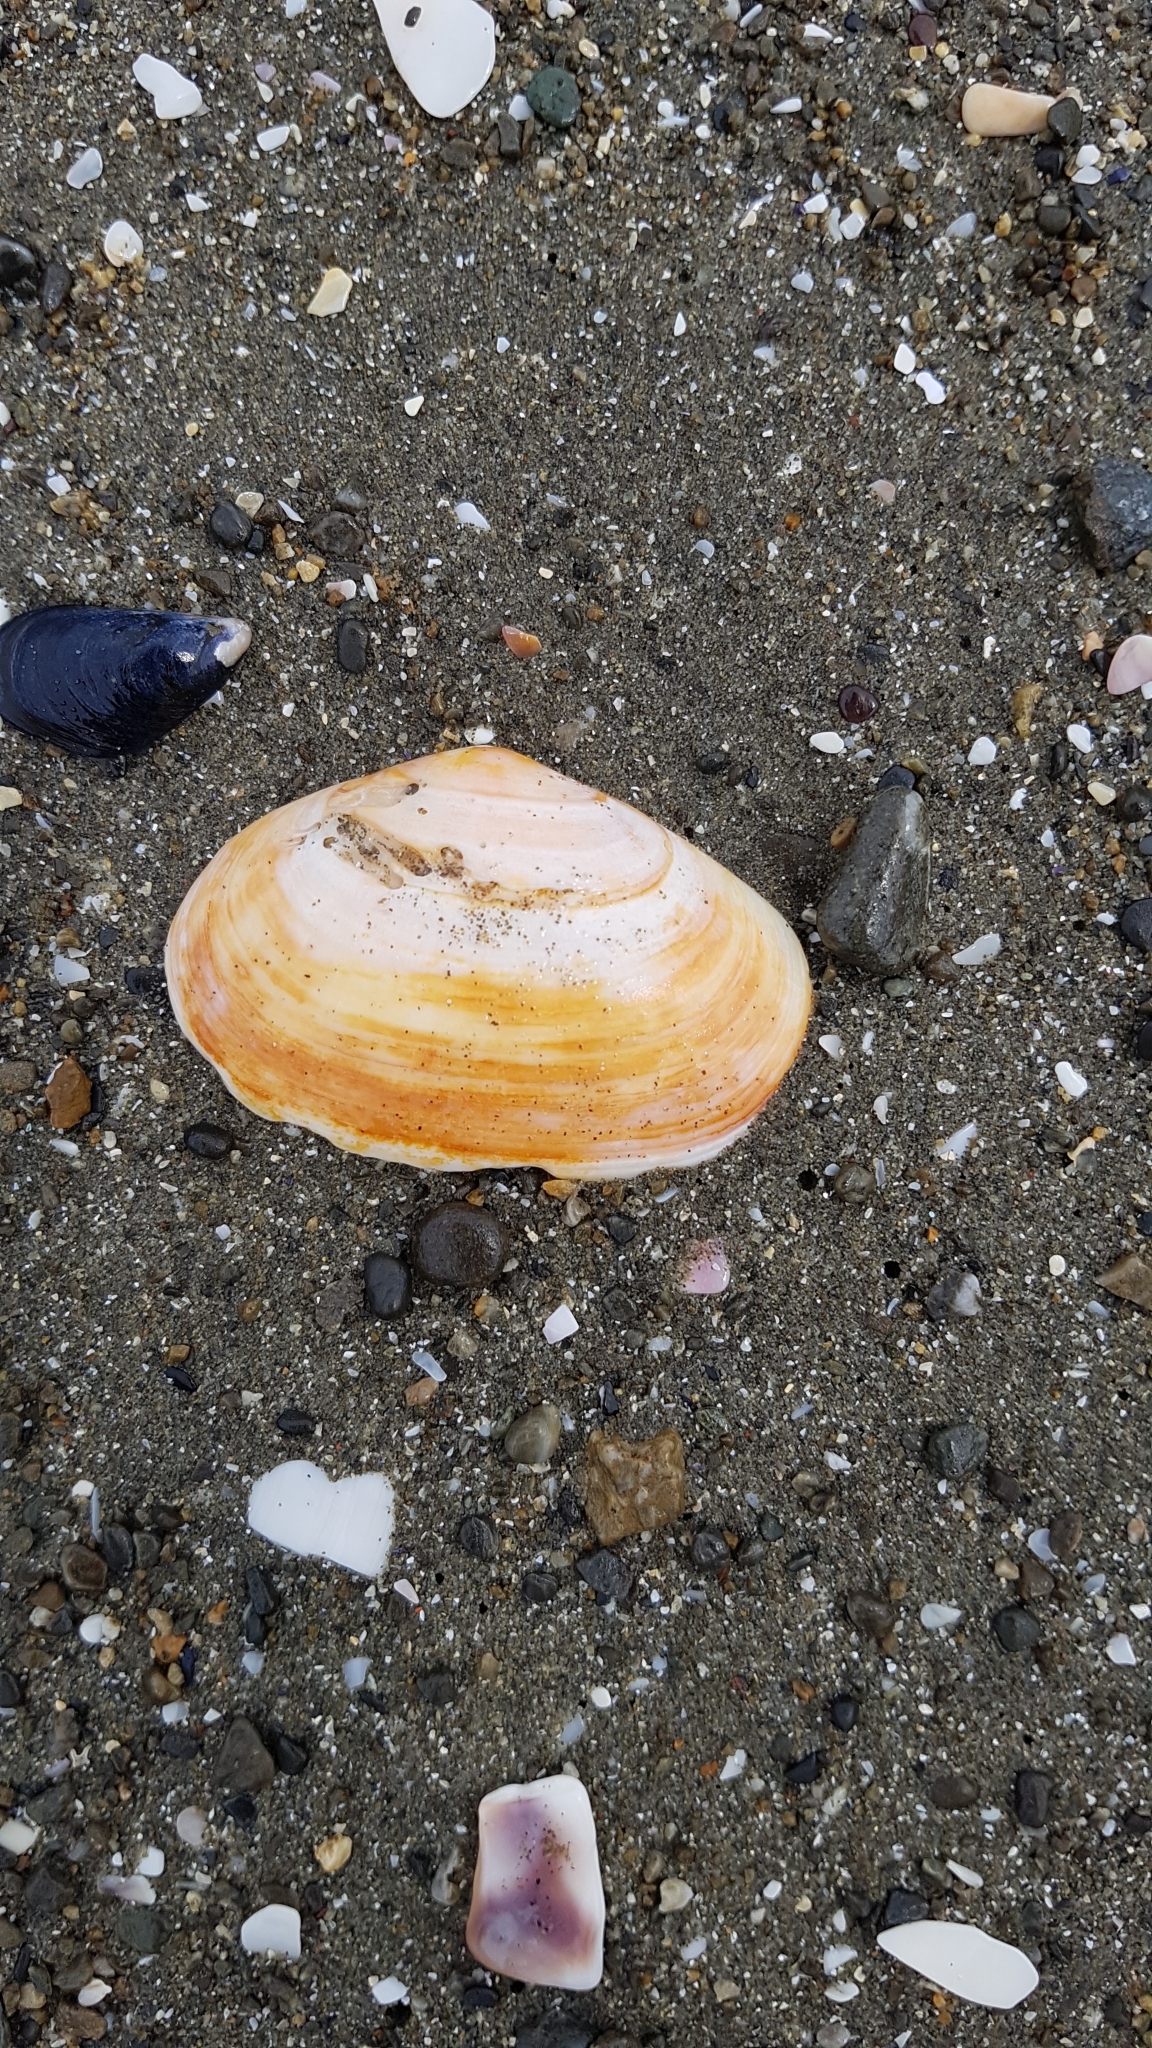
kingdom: Animalia
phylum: Mollusca
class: Bivalvia
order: Venerida
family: Mesodesmatidae
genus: Paphies
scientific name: Paphies australis
